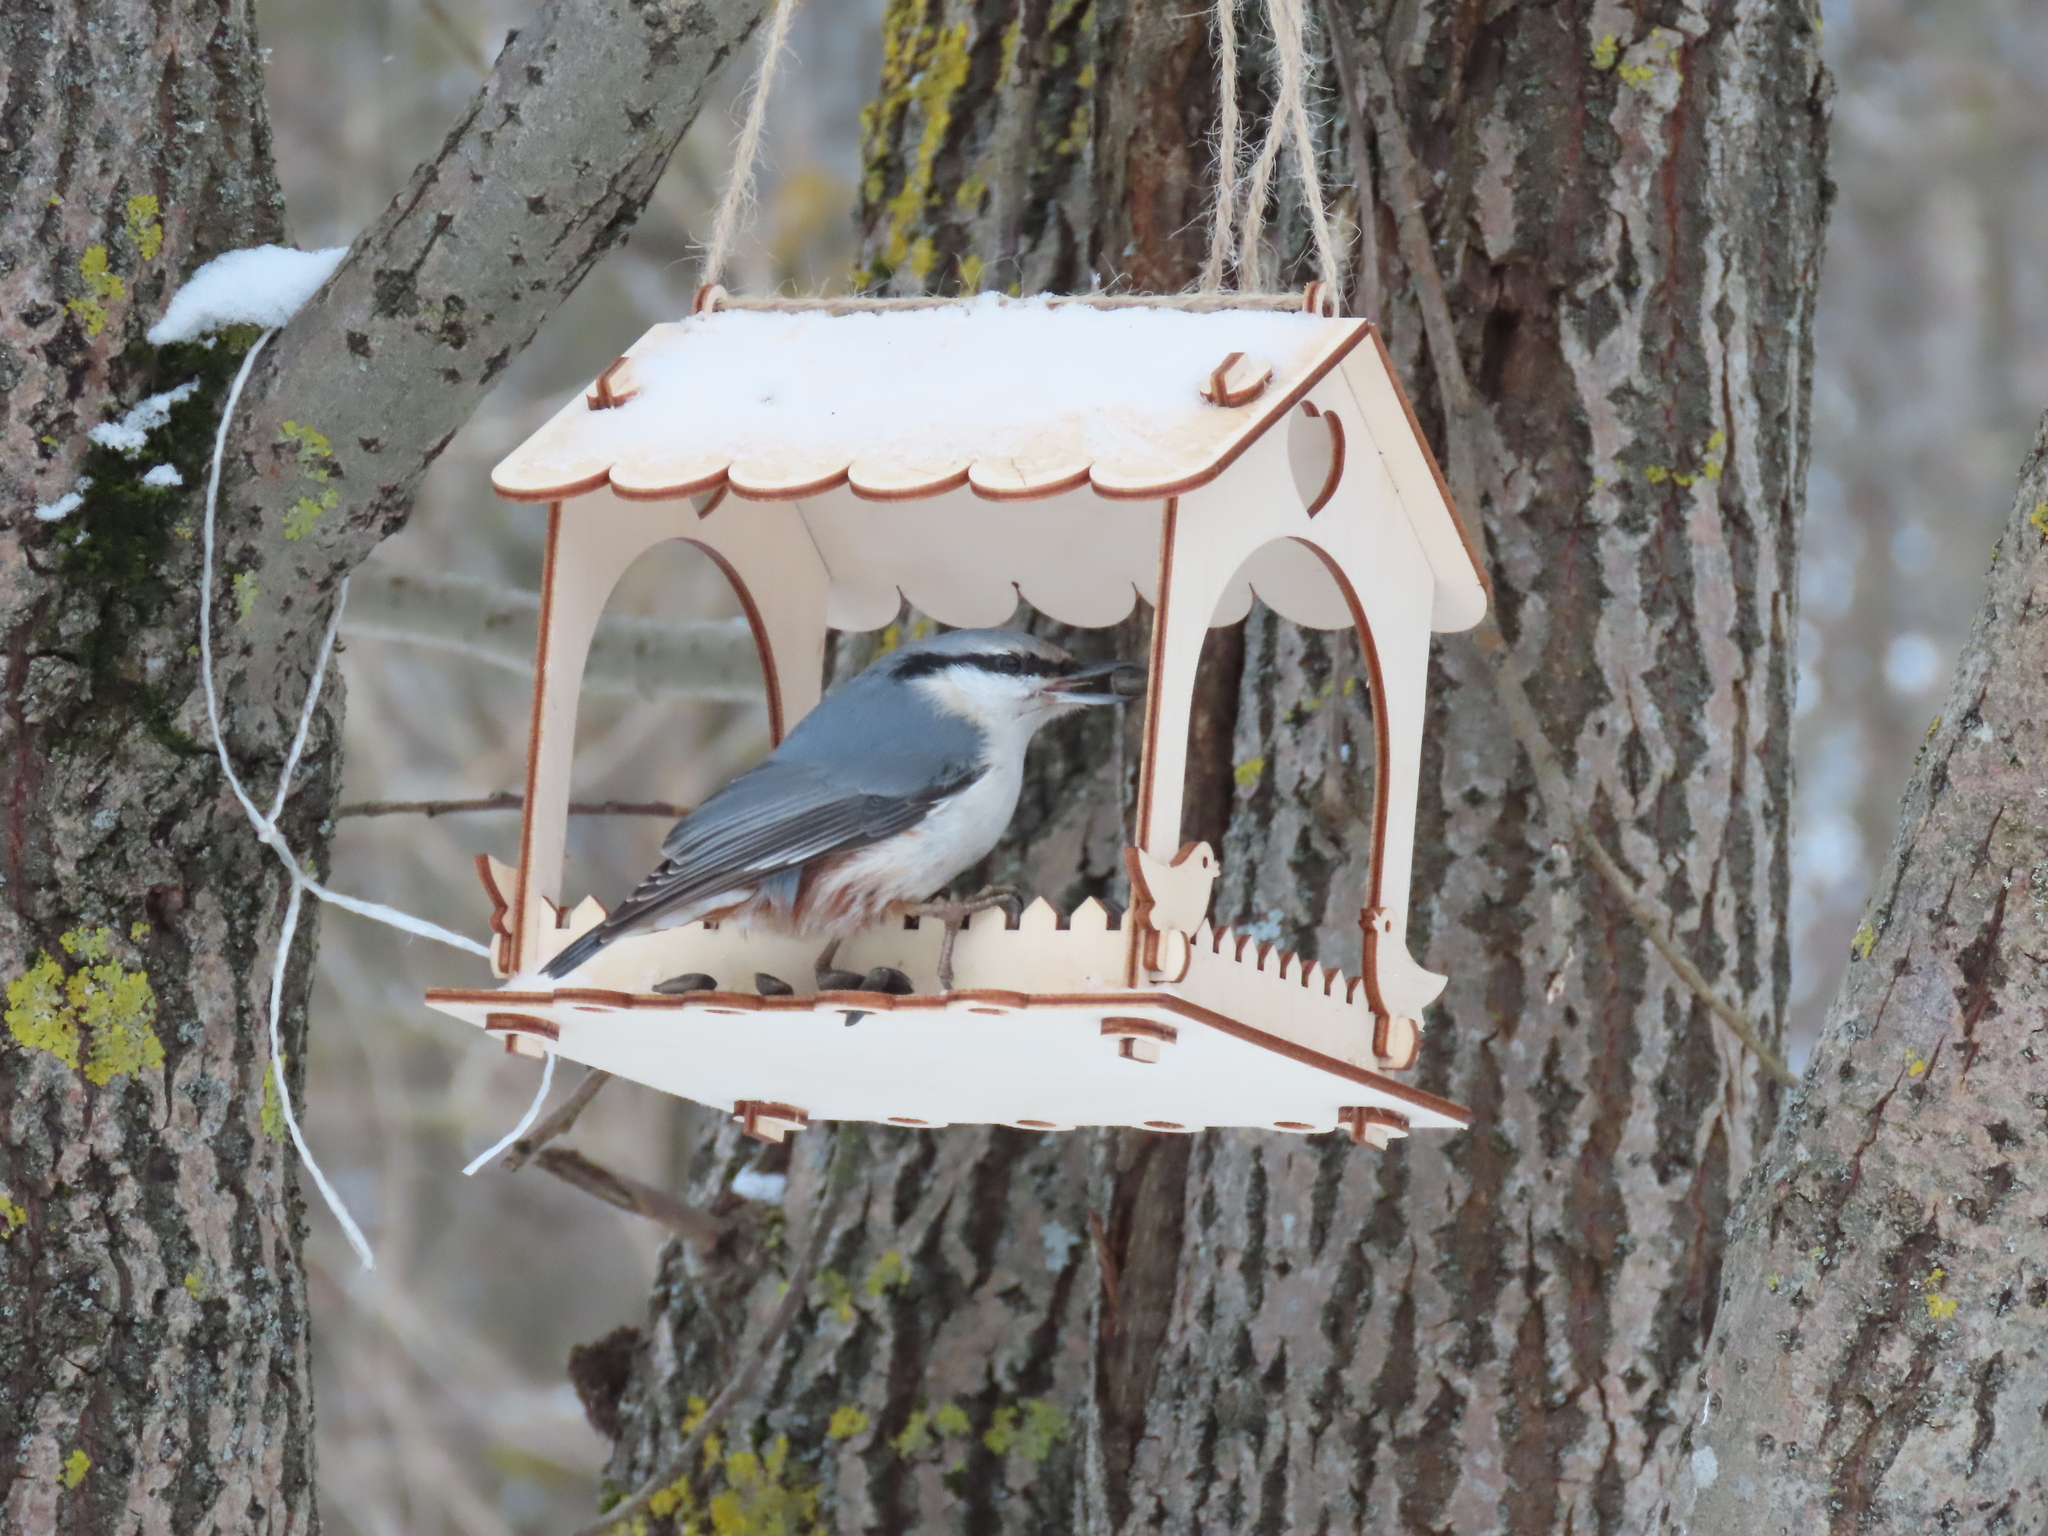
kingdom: Animalia
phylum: Chordata
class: Aves
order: Passeriformes
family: Sittidae
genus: Sitta
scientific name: Sitta europaea
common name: Eurasian nuthatch
